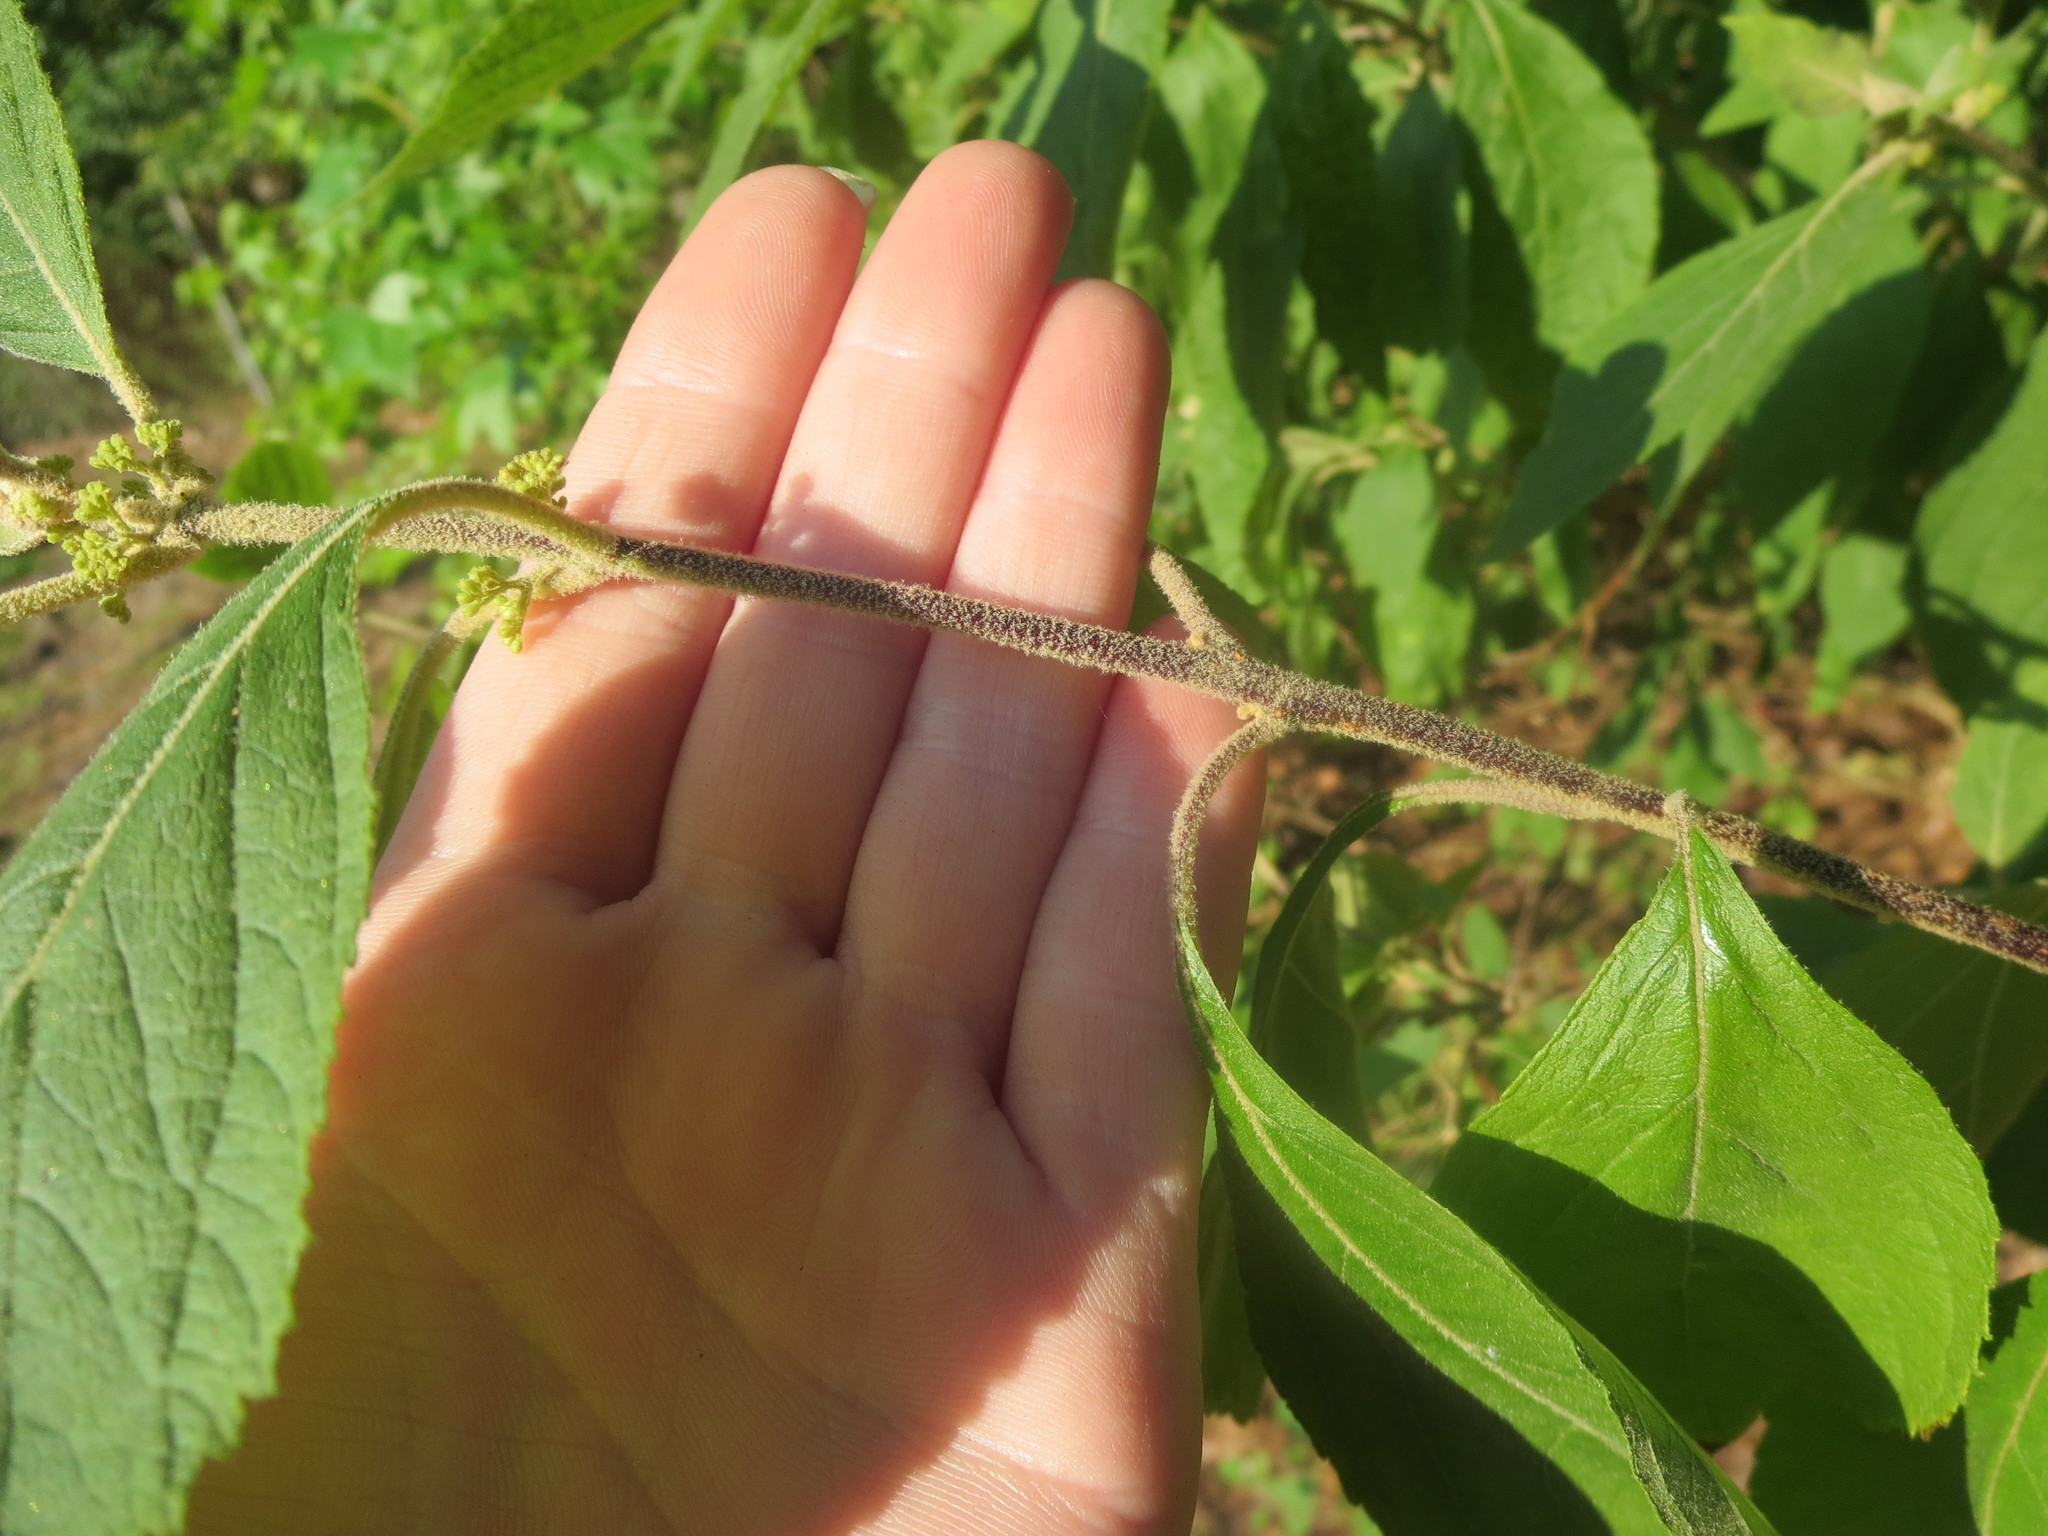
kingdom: Plantae
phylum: Tracheophyta
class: Magnoliopsida
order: Lamiales
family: Lamiaceae
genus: Callicarpa
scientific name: Callicarpa americana
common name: American beautyberry
